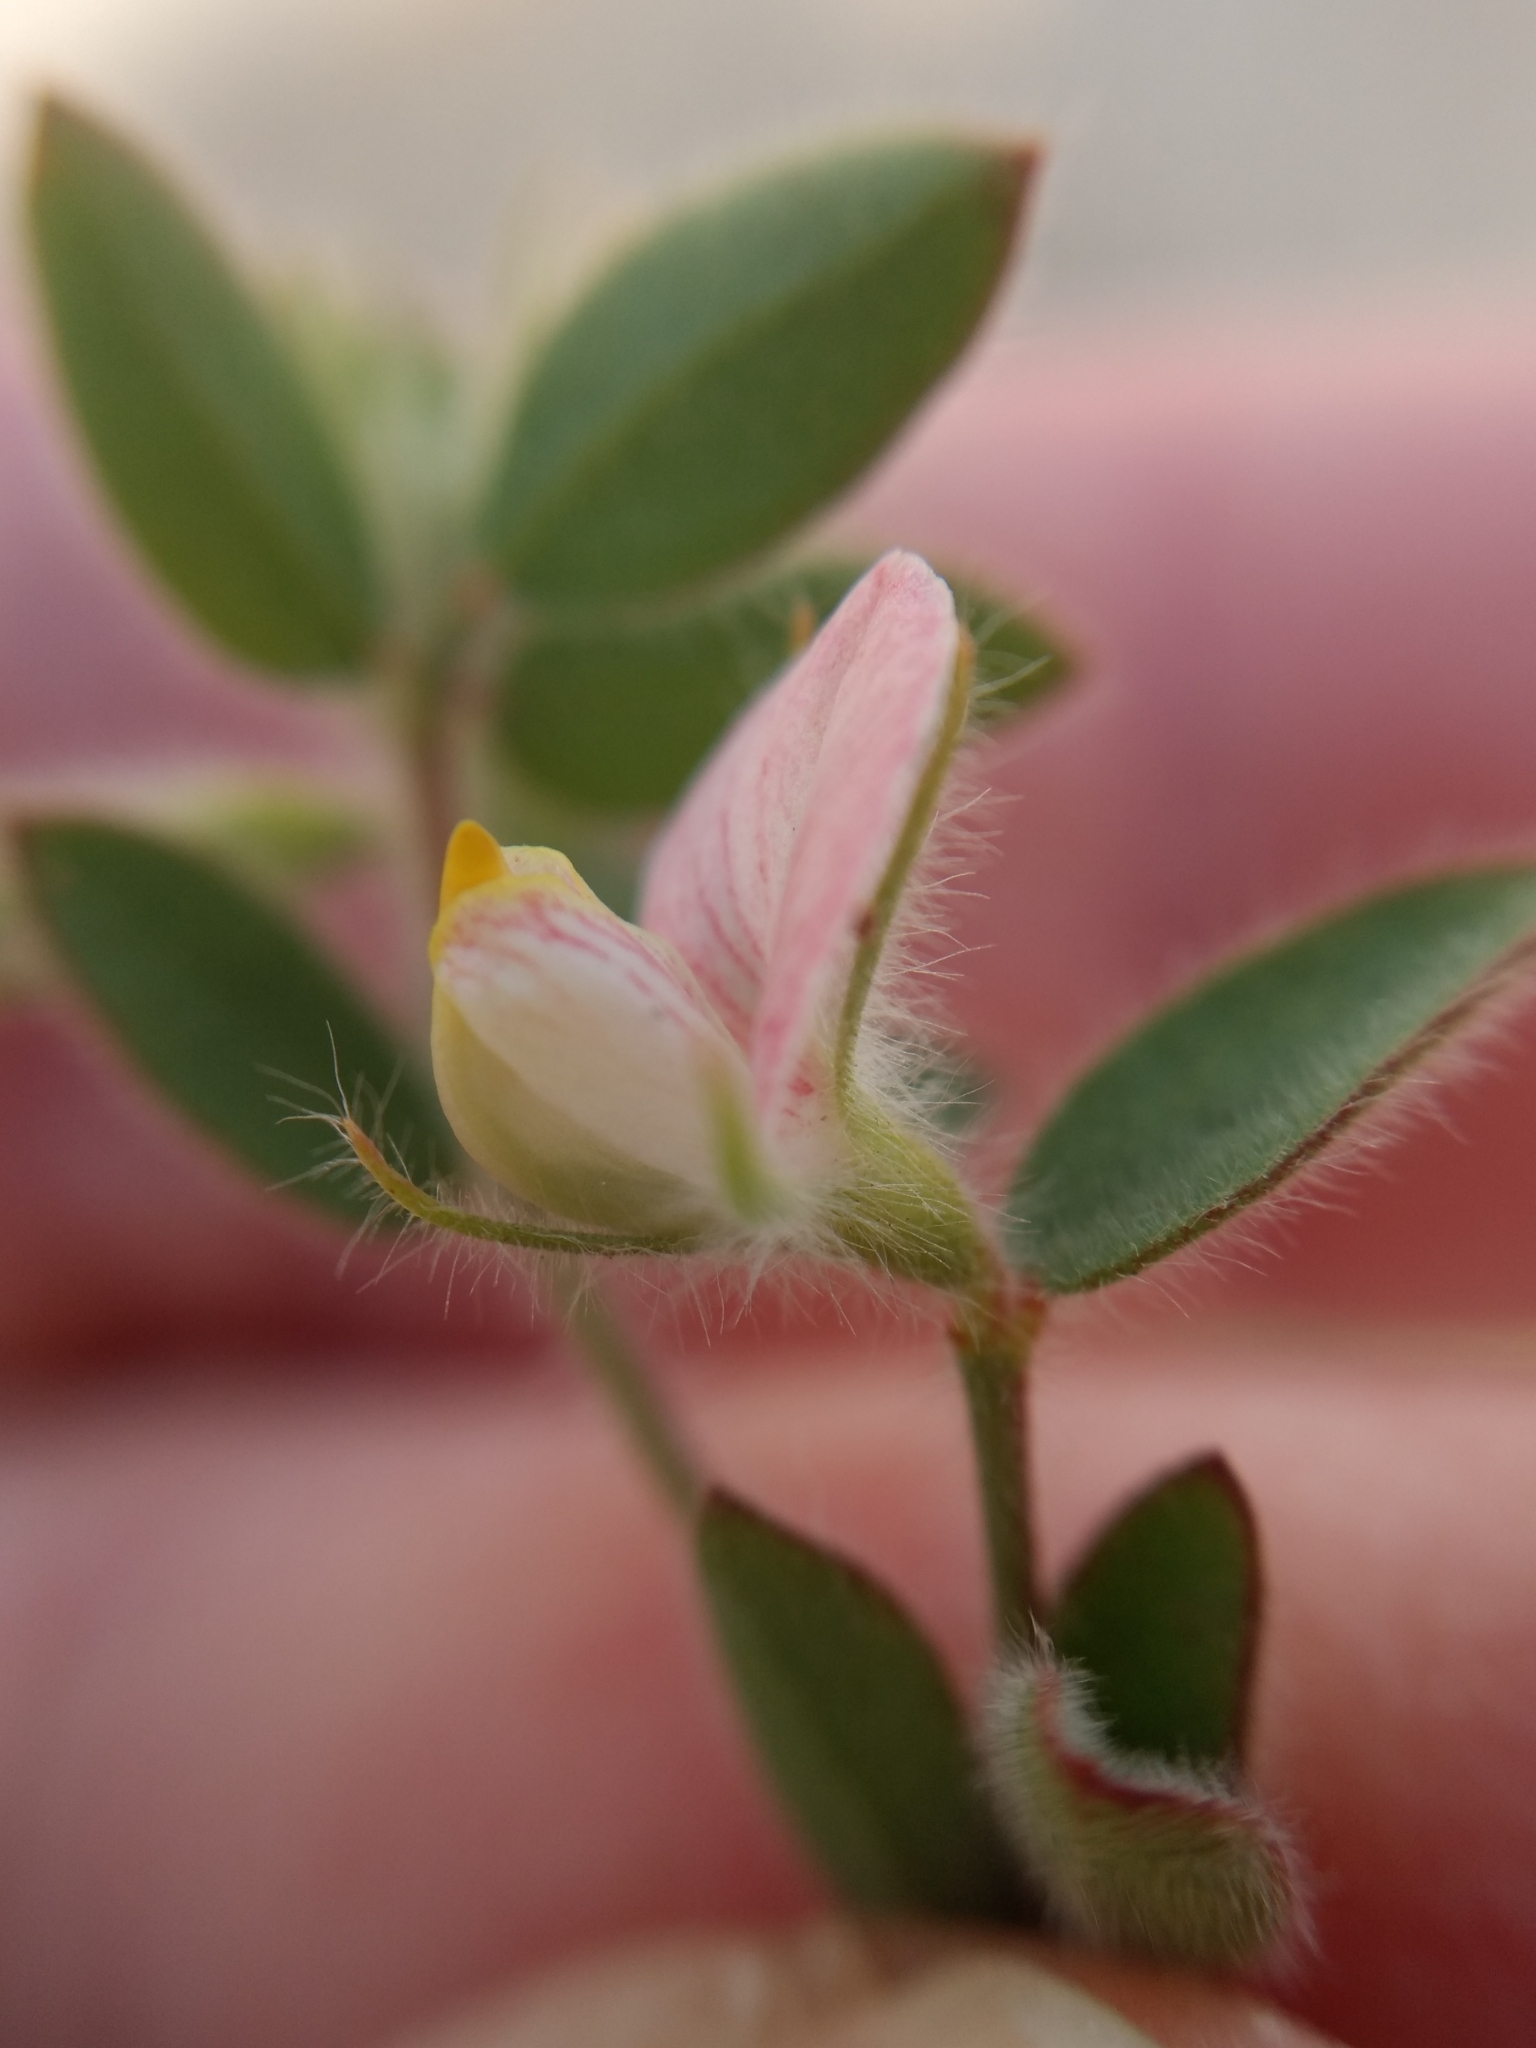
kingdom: Plantae
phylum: Tracheophyta
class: Magnoliopsida
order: Fabales
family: Fabaceae
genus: Acmispon
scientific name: Acmispon americanus
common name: American bird's-foot trefoil
